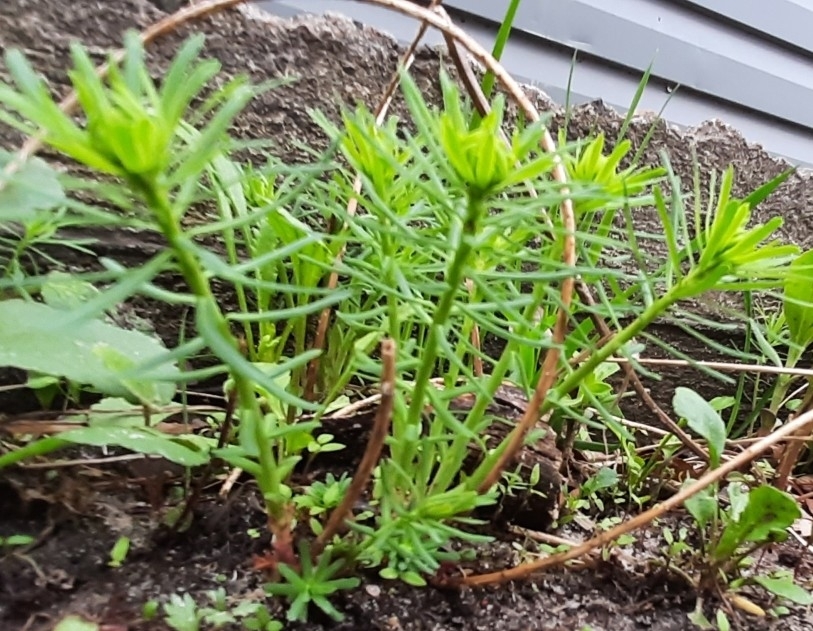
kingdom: Plantae
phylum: Tracheophyta
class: Magnoliopsida
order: Malpighiales
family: Euphorbiaceae
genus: Euphorbia
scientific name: Euphorbia cyparissias
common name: Cypress spurge
